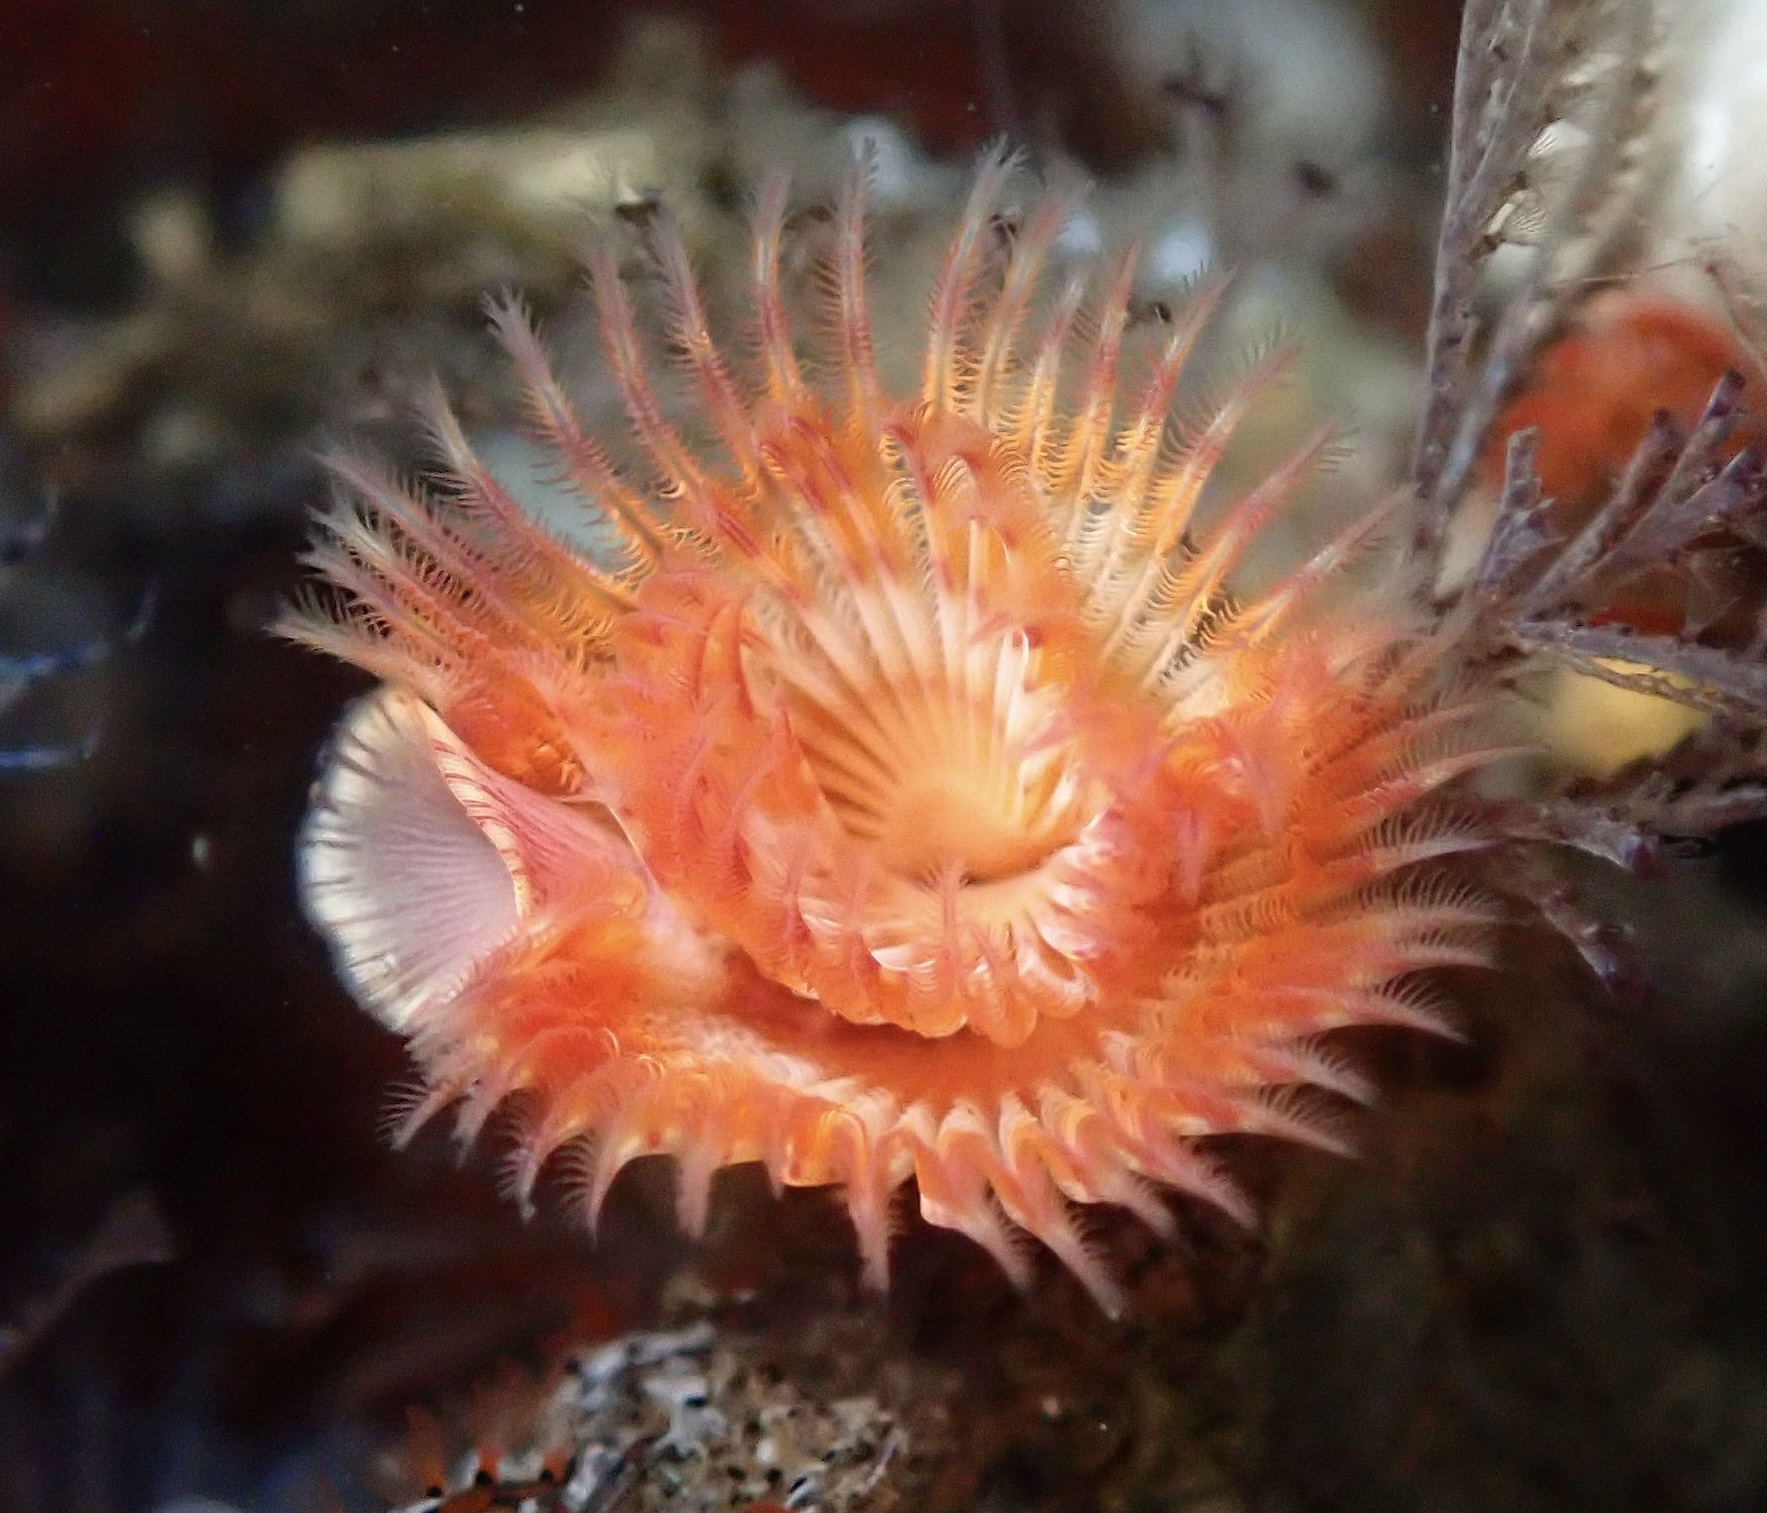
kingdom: Animalia
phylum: Annelida
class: Polychaeta
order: Sabellida
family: Serpulidae
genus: Serpula
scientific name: Serpula columbiana
